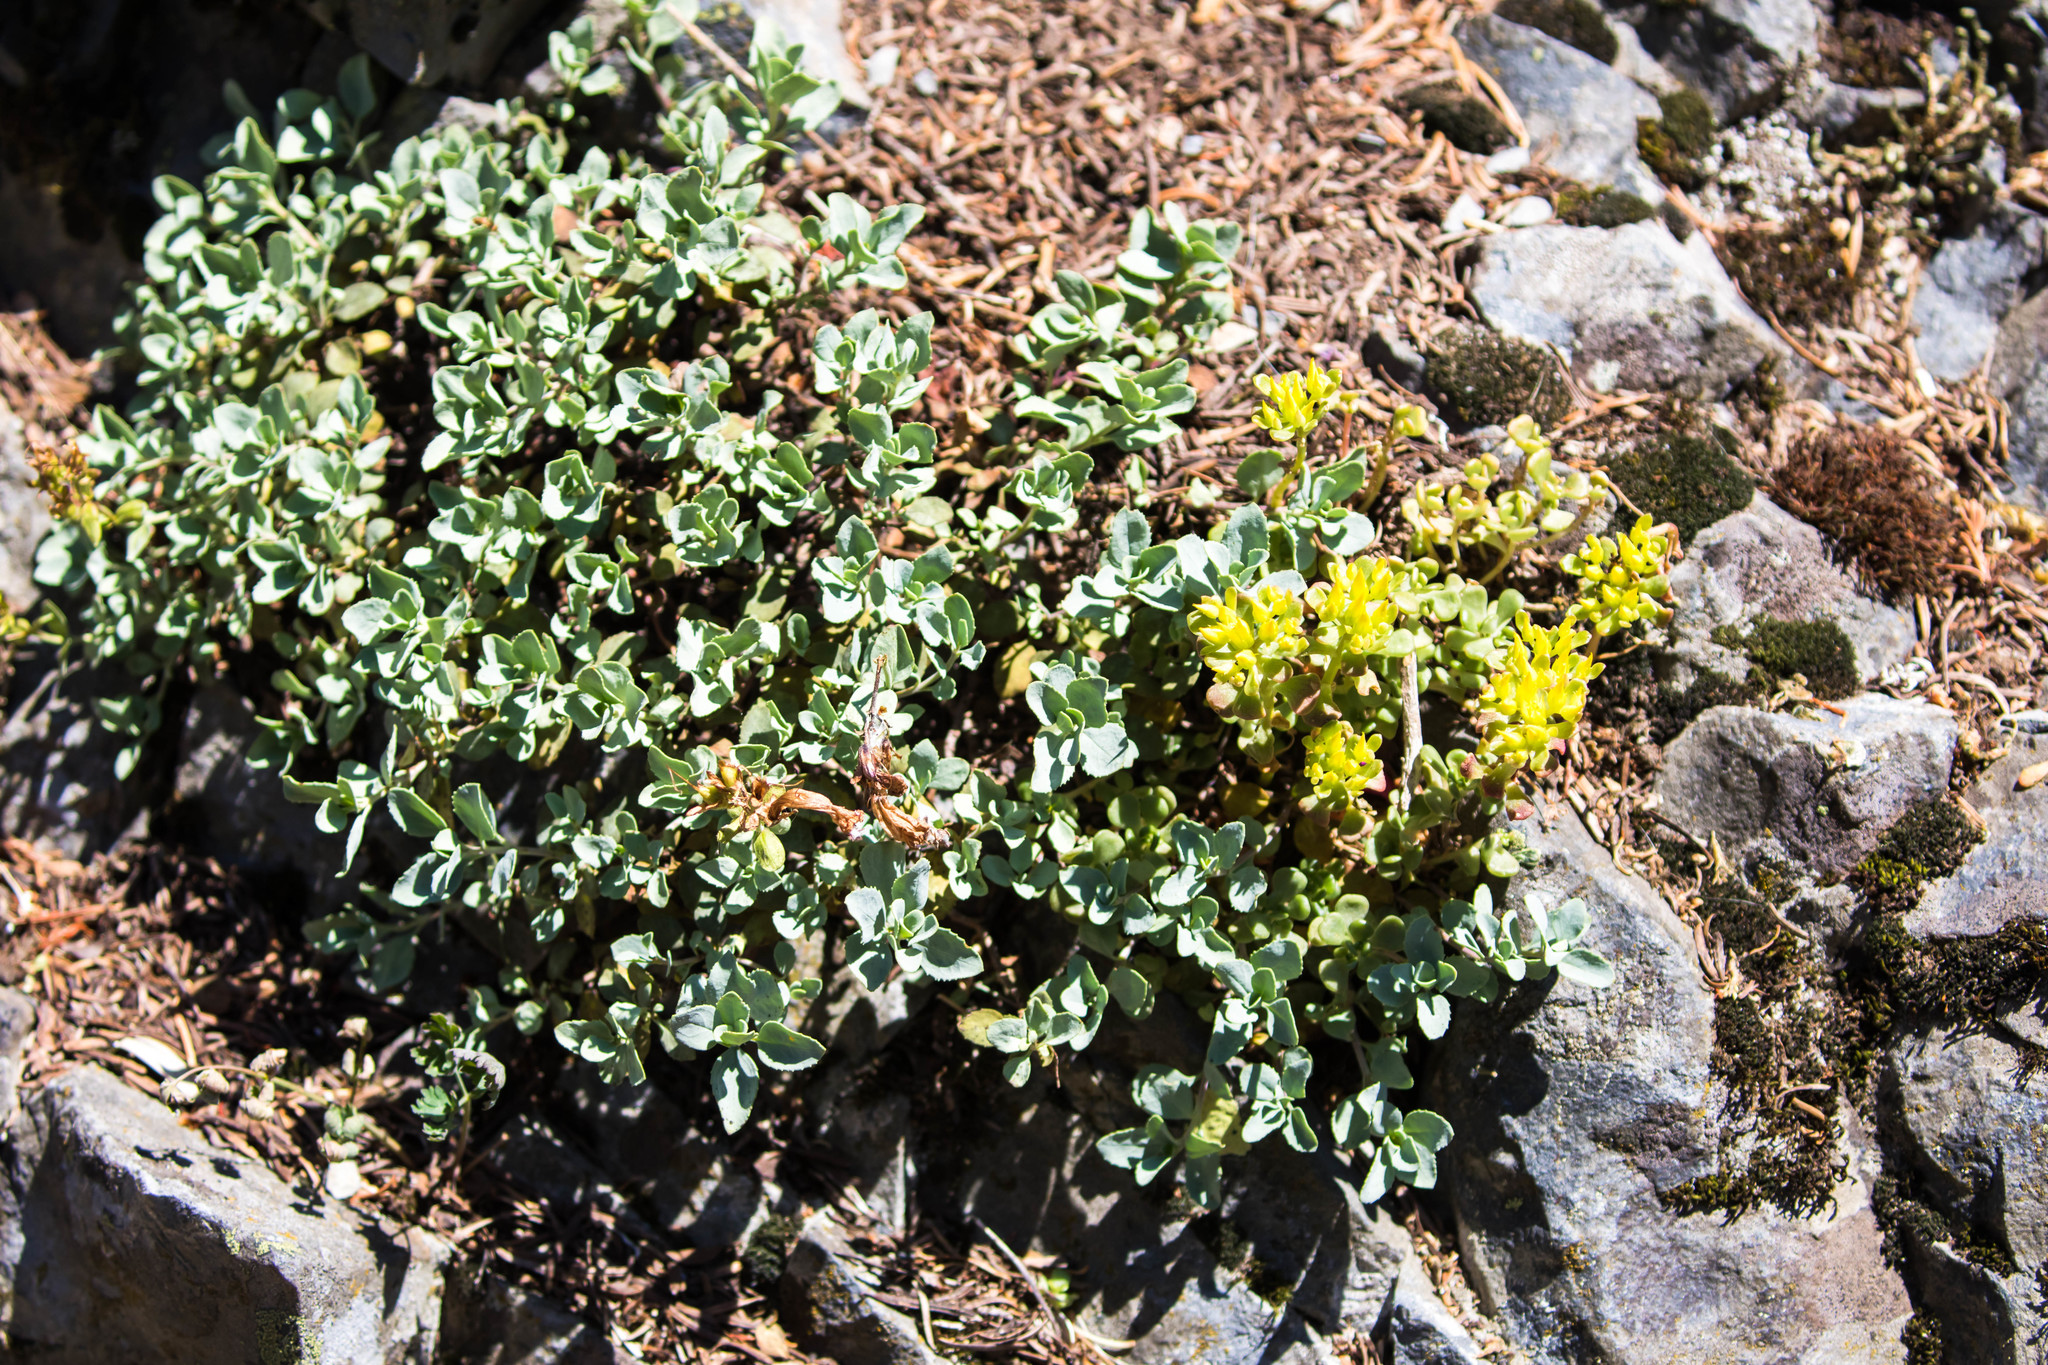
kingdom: Plantae
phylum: Tracheophyta
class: Magnoliopsida
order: Saxifragales
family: Crassulaceae
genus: Sedum
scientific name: Sedum oreganum
